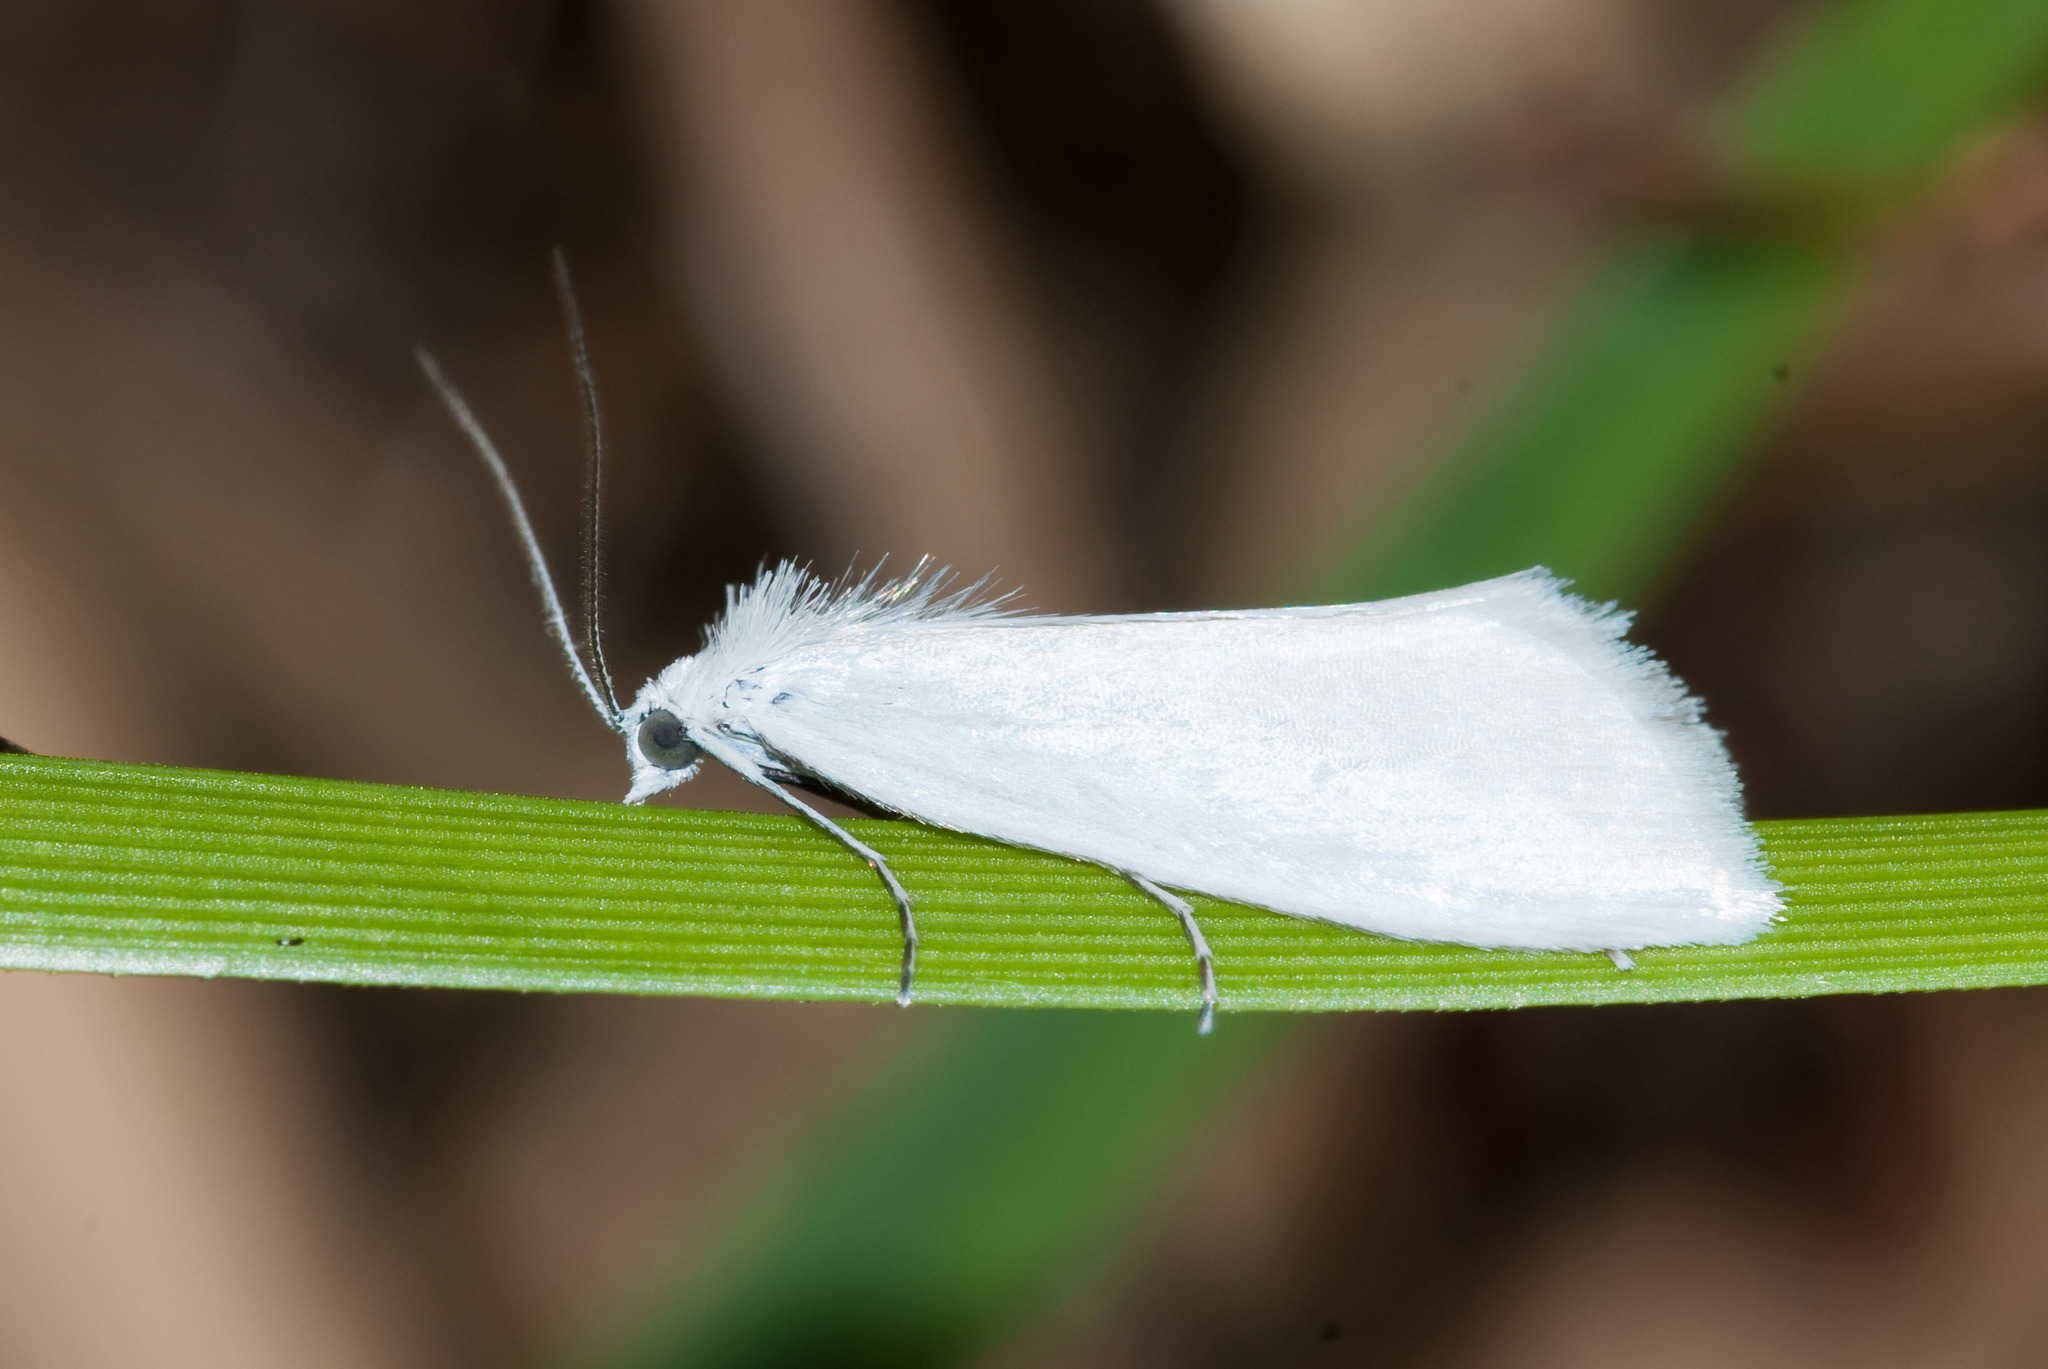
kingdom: Animalia
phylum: Arthropoda
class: Insecta
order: Lepidoptera
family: Crambidae
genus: Tipanaea
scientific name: Tipanaea patulella
